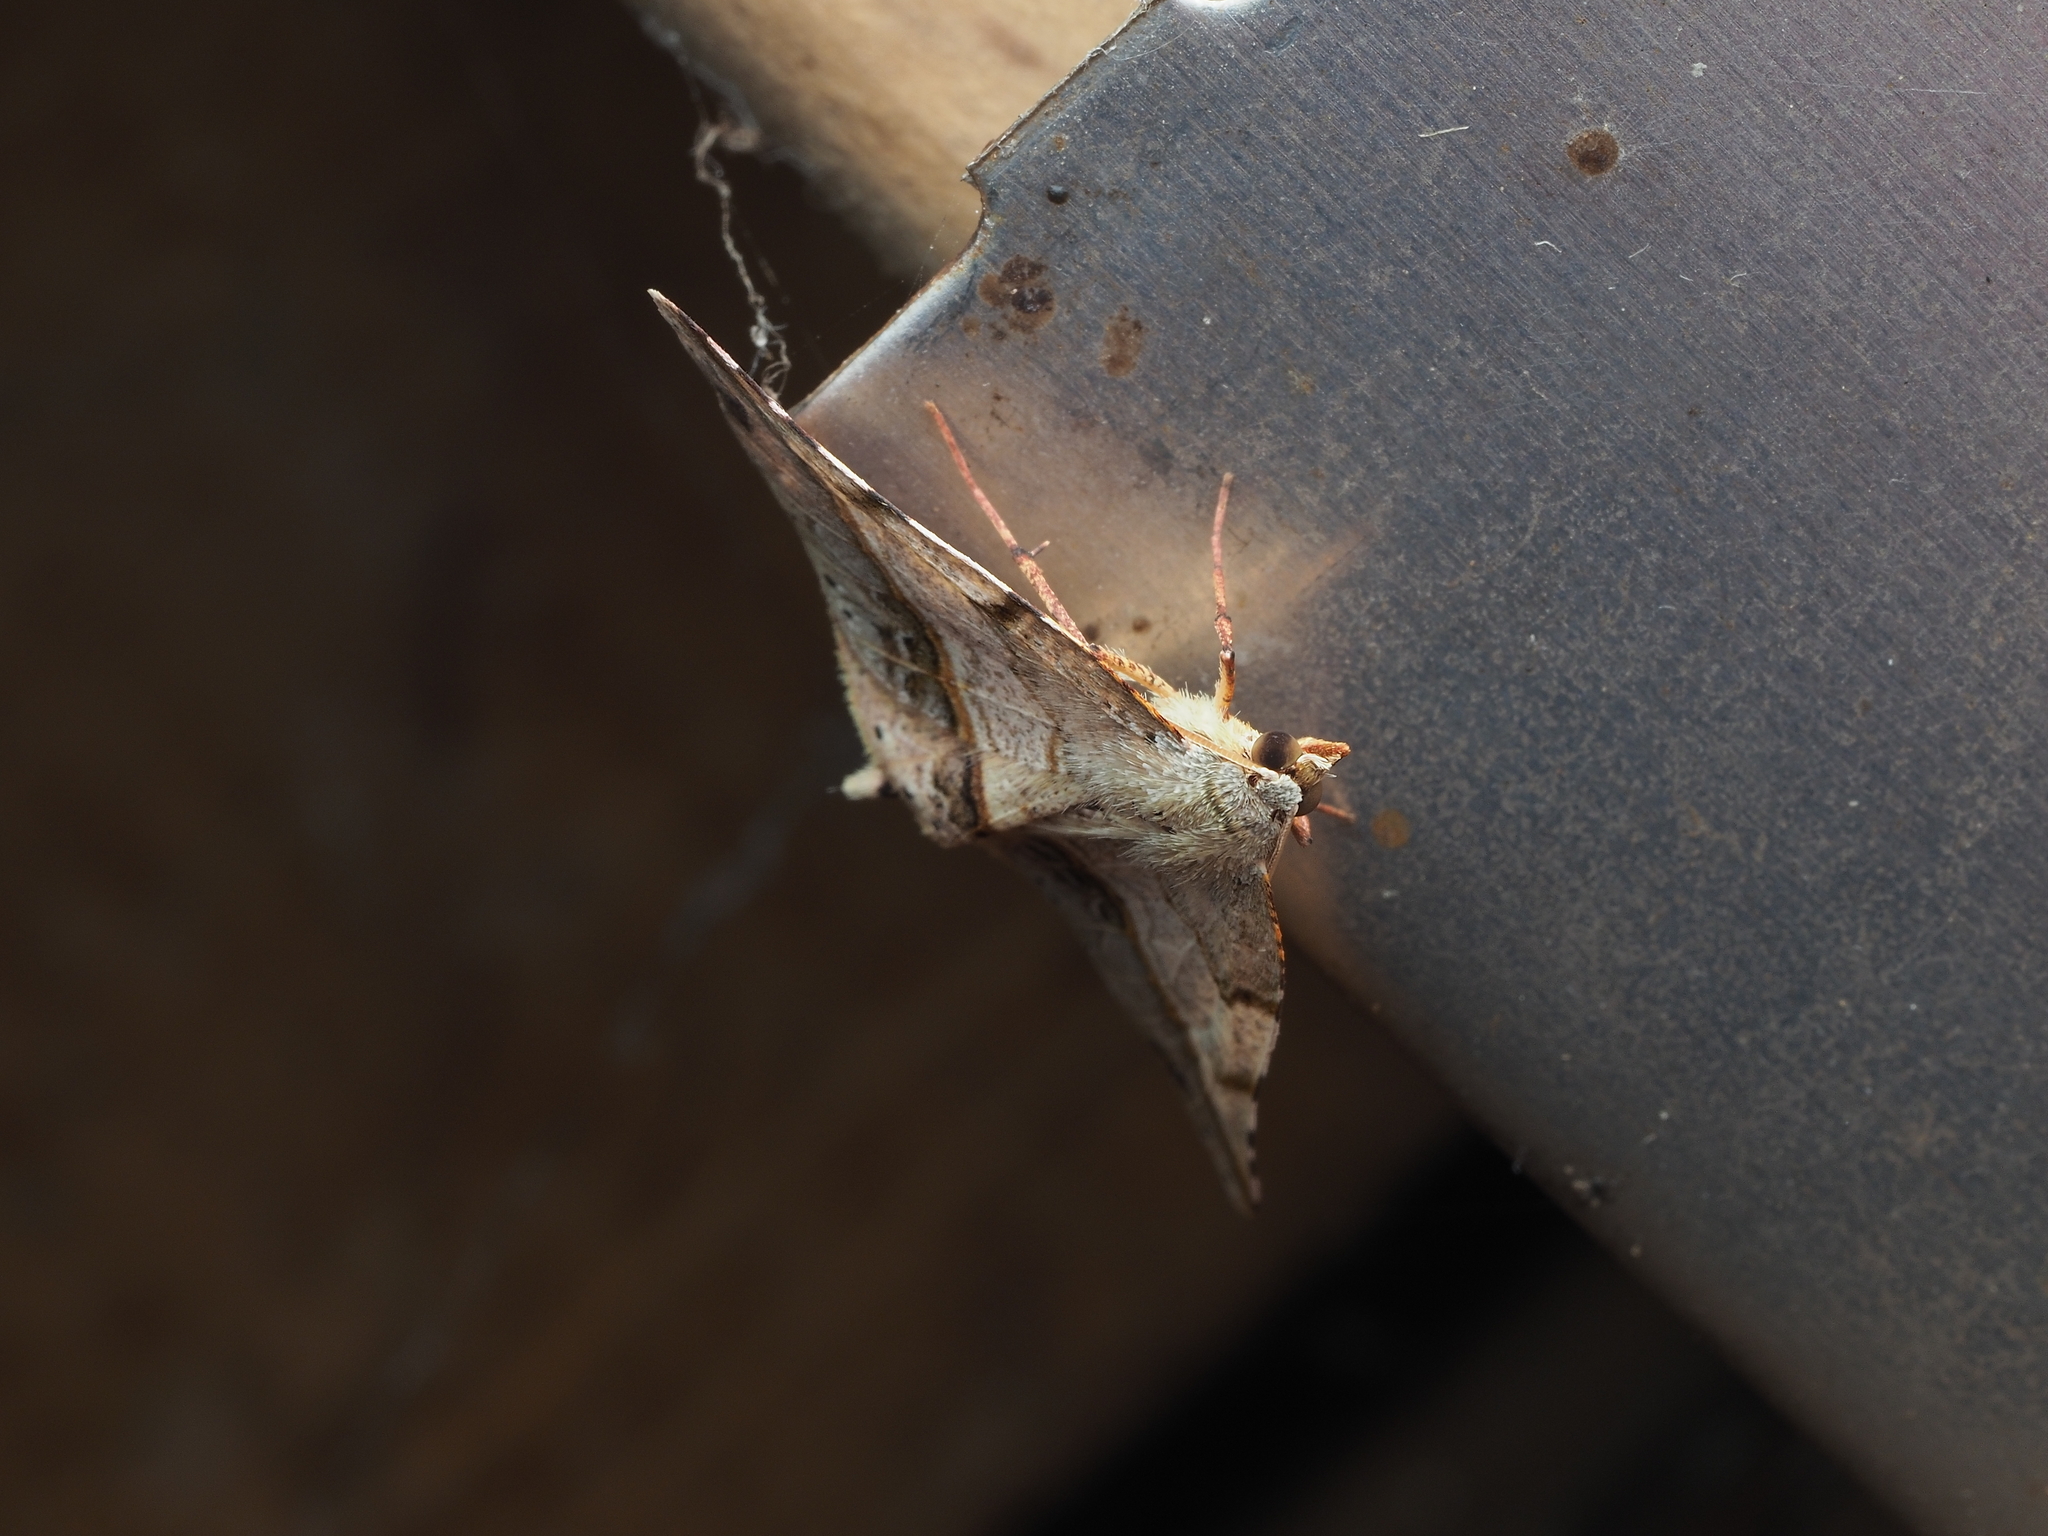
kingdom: Animalia
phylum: Arthropoda
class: Insecta
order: Lepidoptera
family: Geometridae
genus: Ischalis
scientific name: Ischalis gallaria
